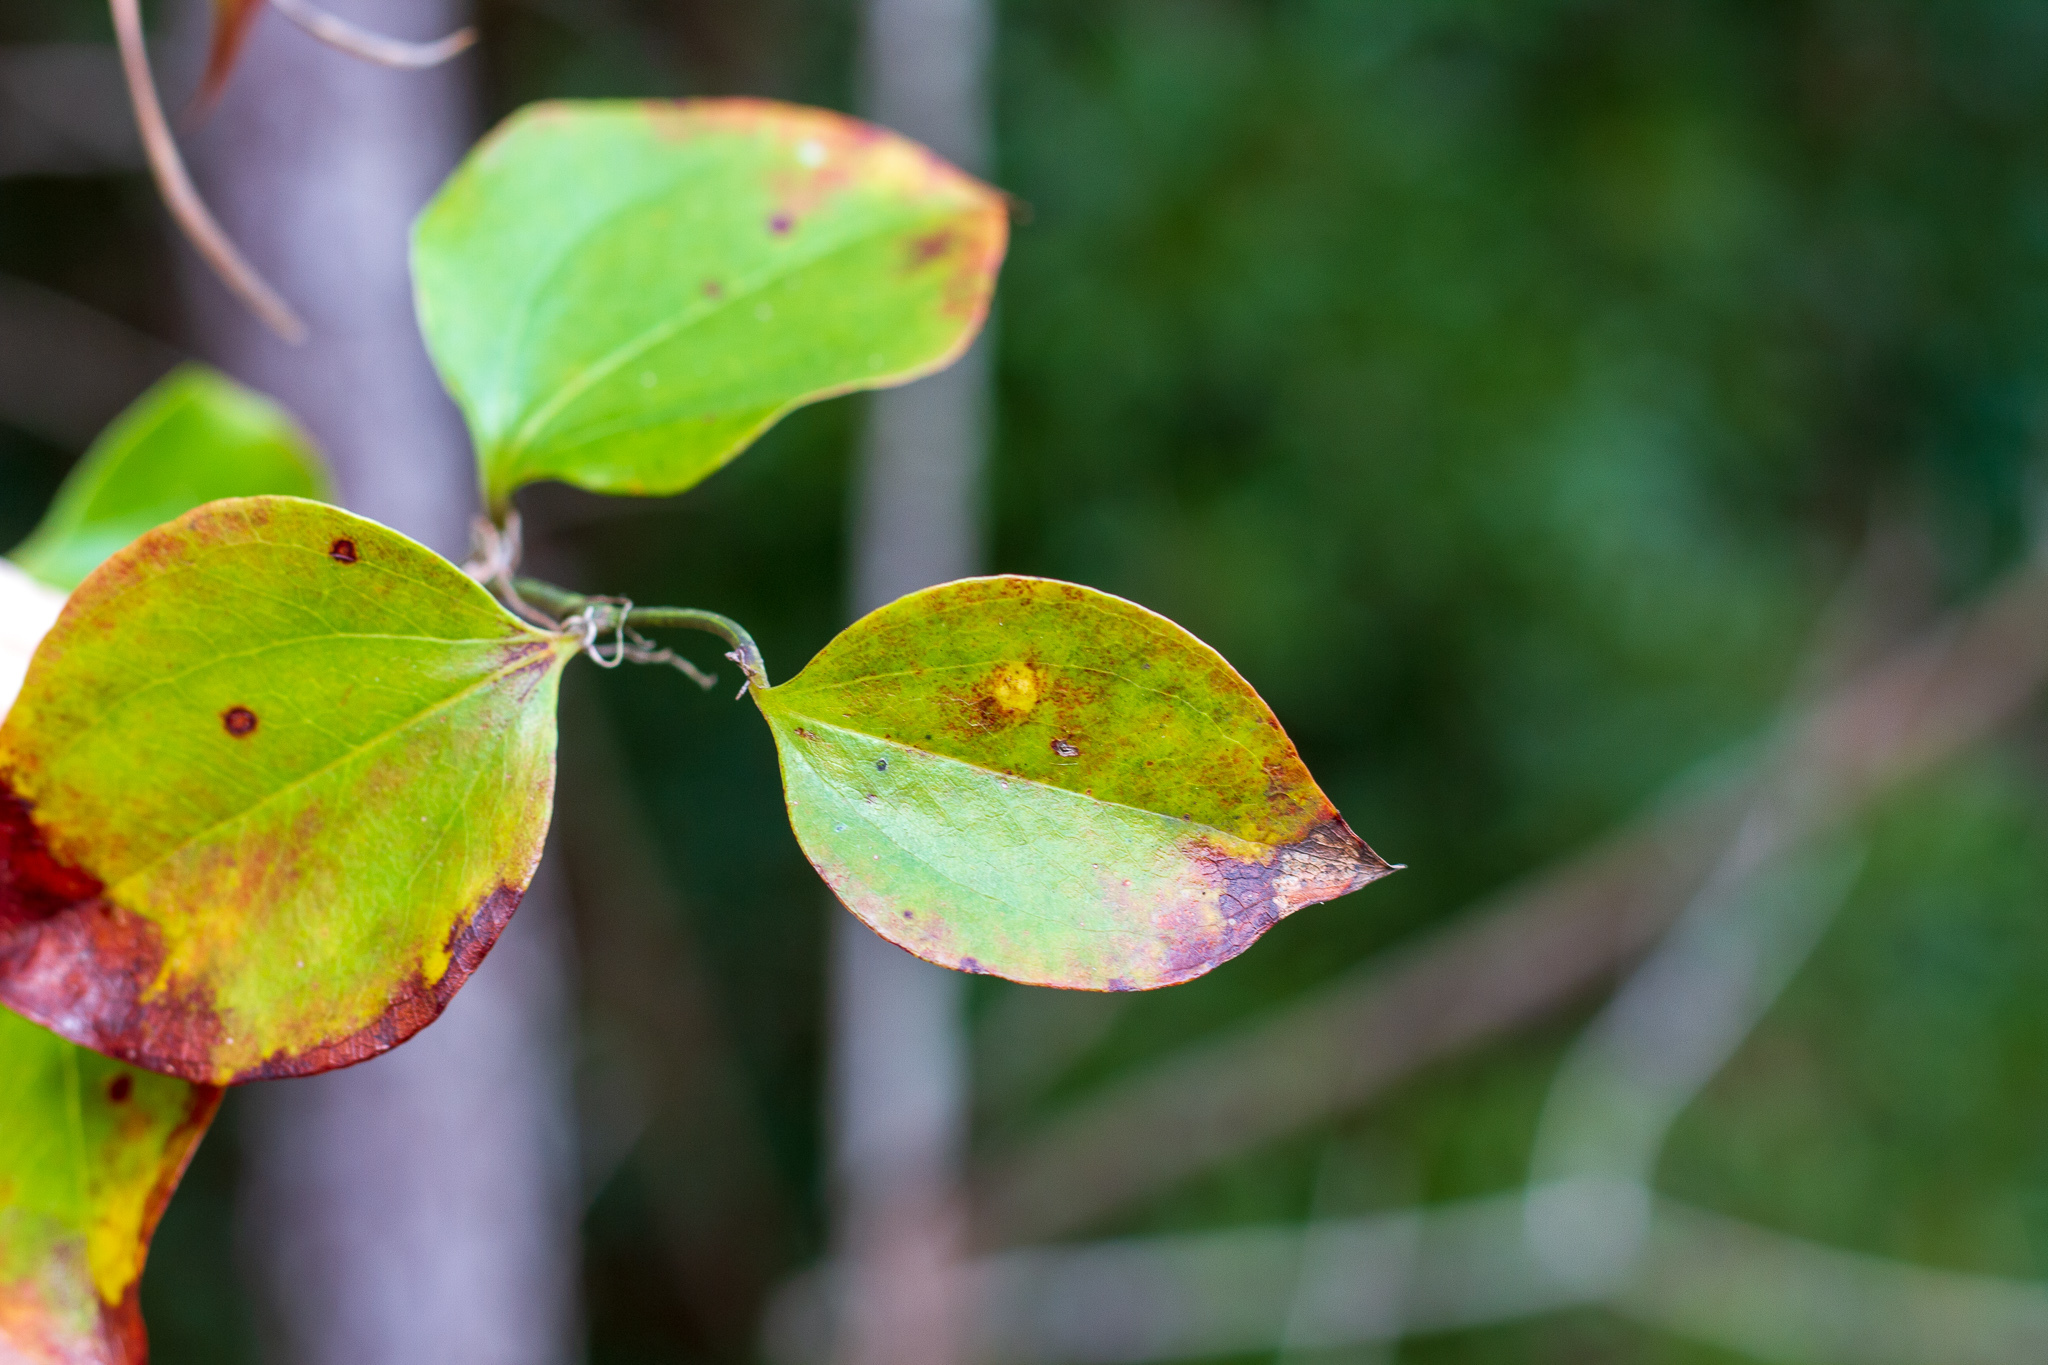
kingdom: Plantae
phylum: Tracheophyta
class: Liliopsida
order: Liliales
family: Smilacaceae
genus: Smilax
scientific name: Smilax rotundifolia
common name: Bullbriar
